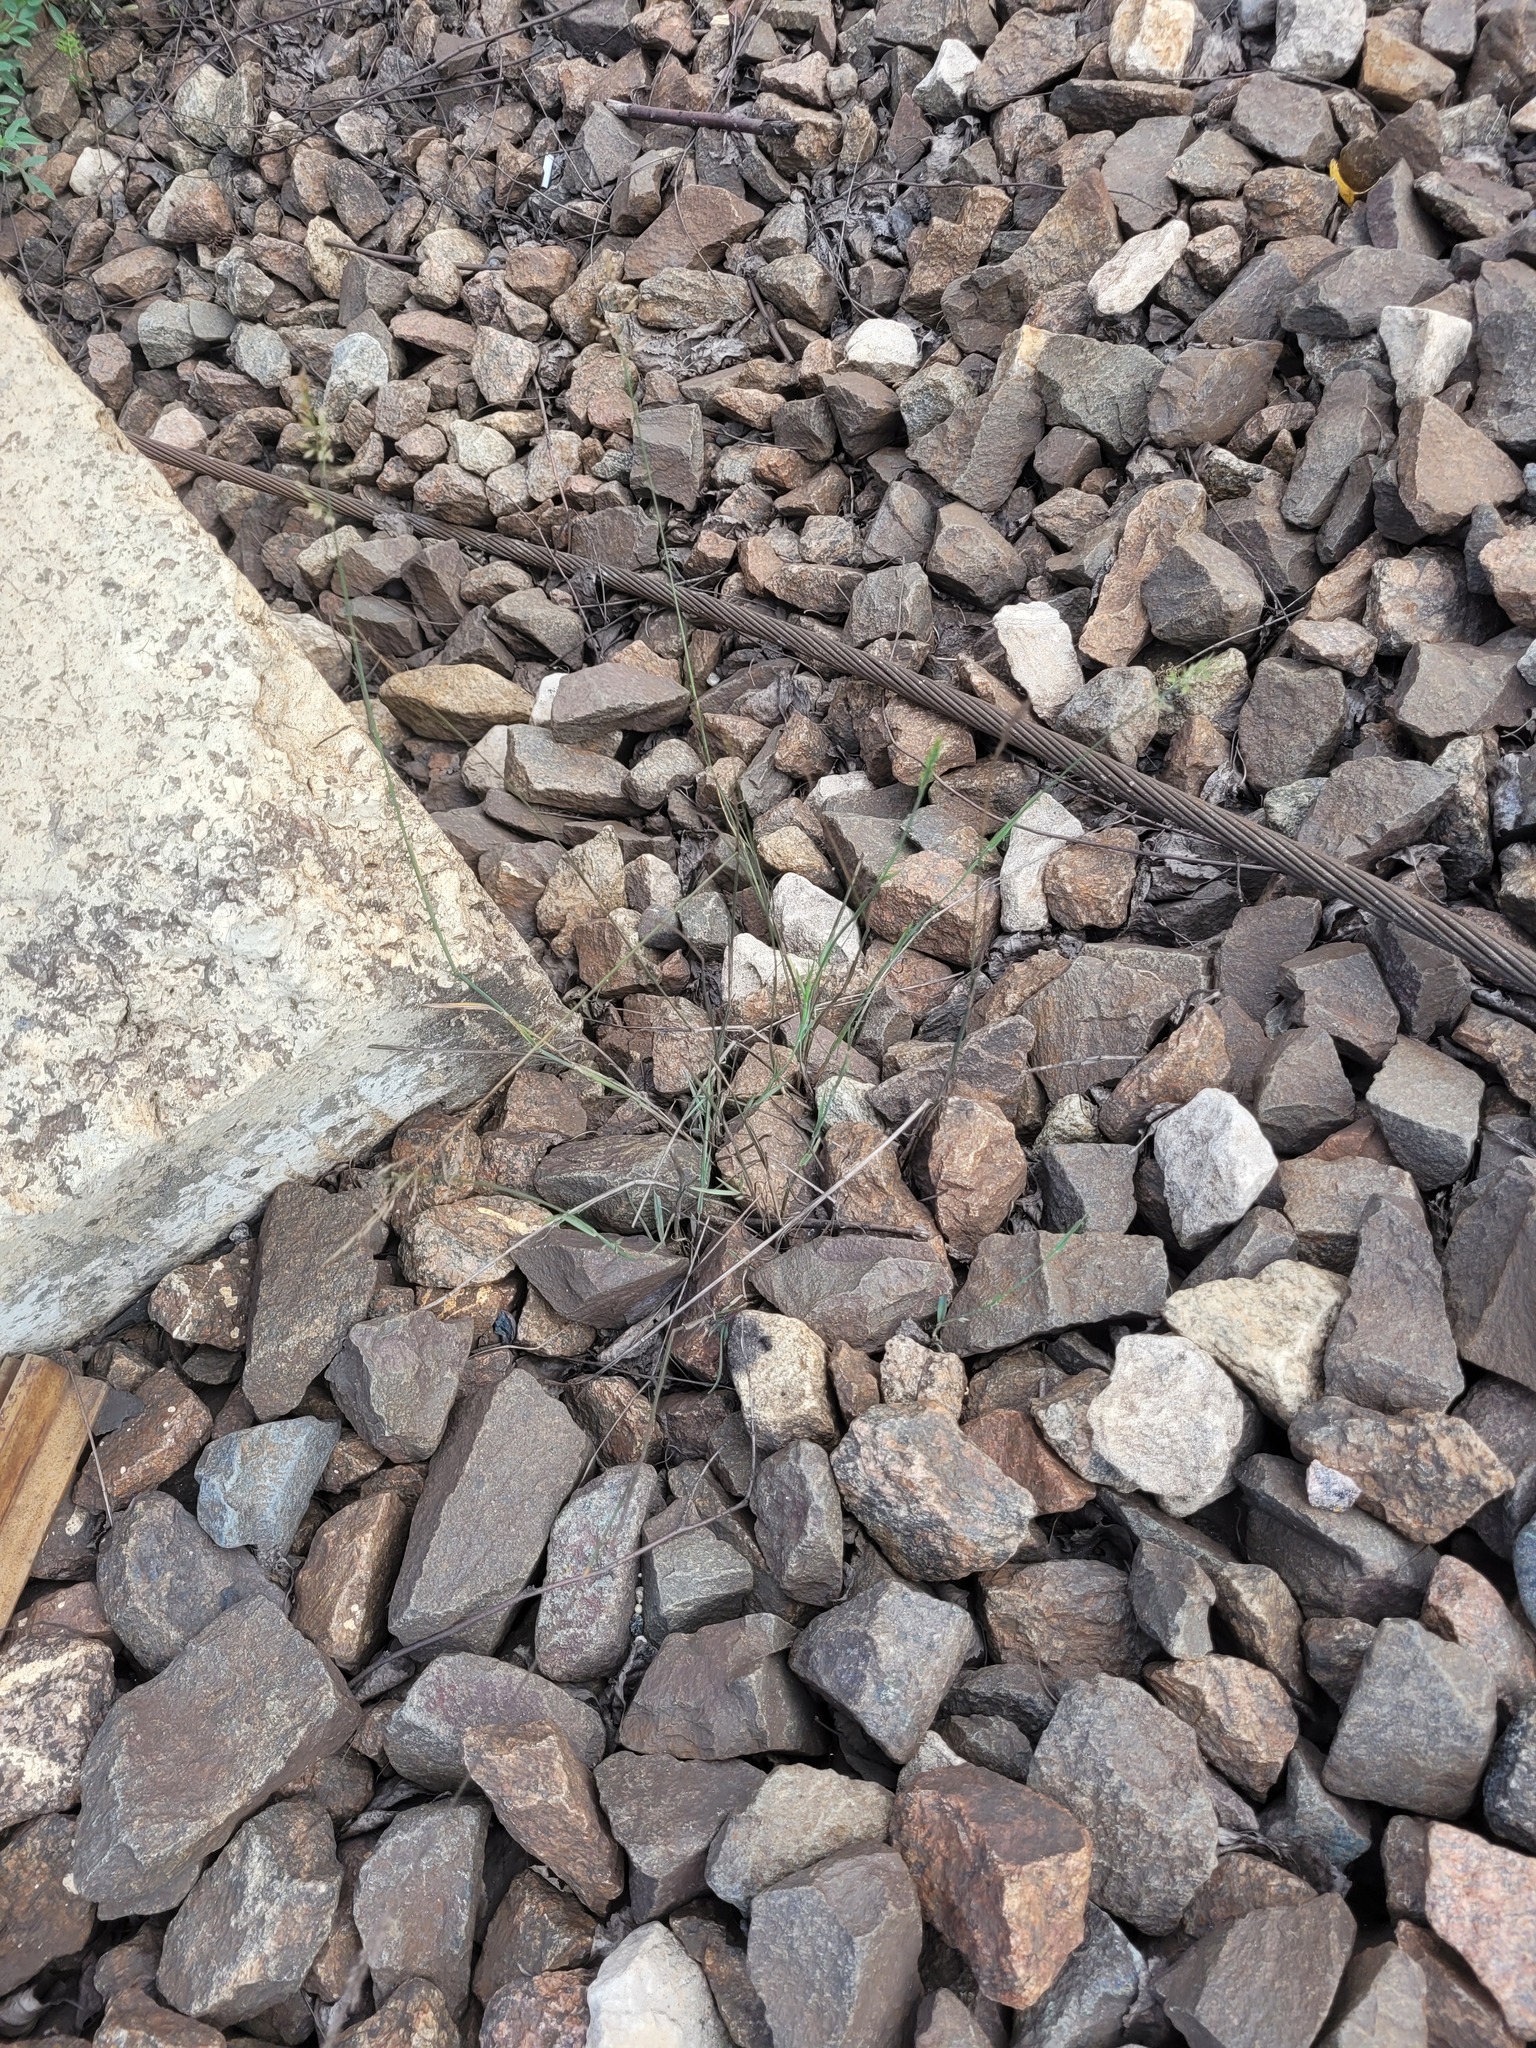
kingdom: Plantae
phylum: Tracheophyta
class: Liliopsida
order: Poales
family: Poaceae
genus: Poa
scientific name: Poa compressa
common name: Canada bluegrass
